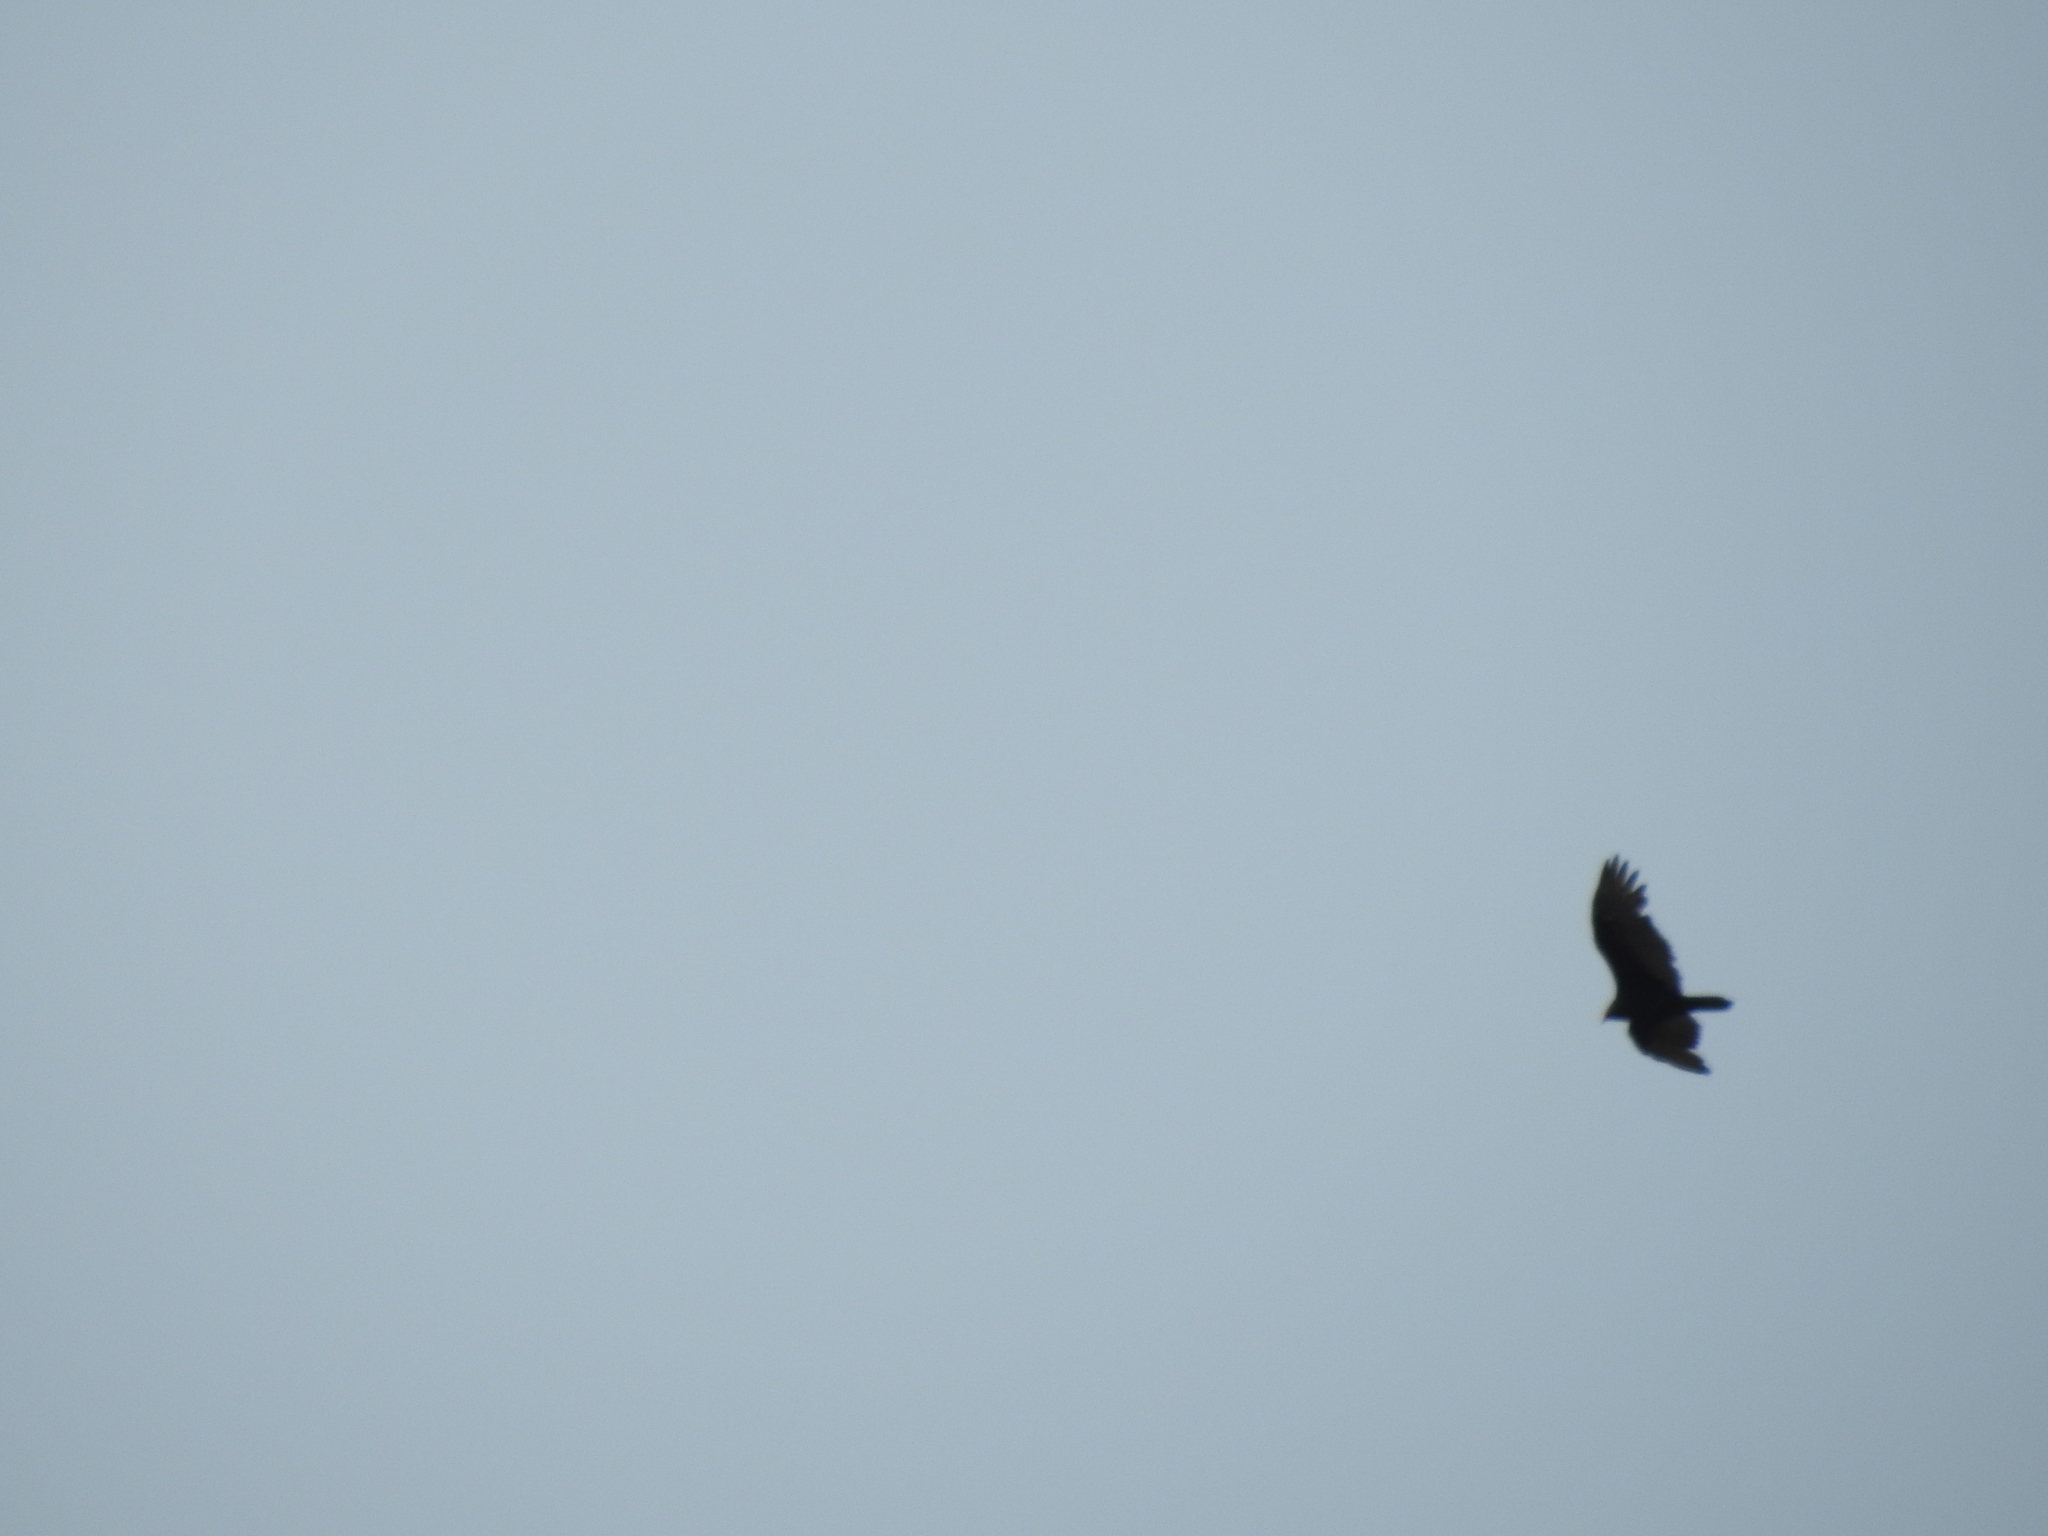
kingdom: Animalia
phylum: Chordata
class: Aves
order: Accipitriformes
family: Cathartidae
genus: Cathartes
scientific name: Cathartes aura
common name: Turkey vulture
